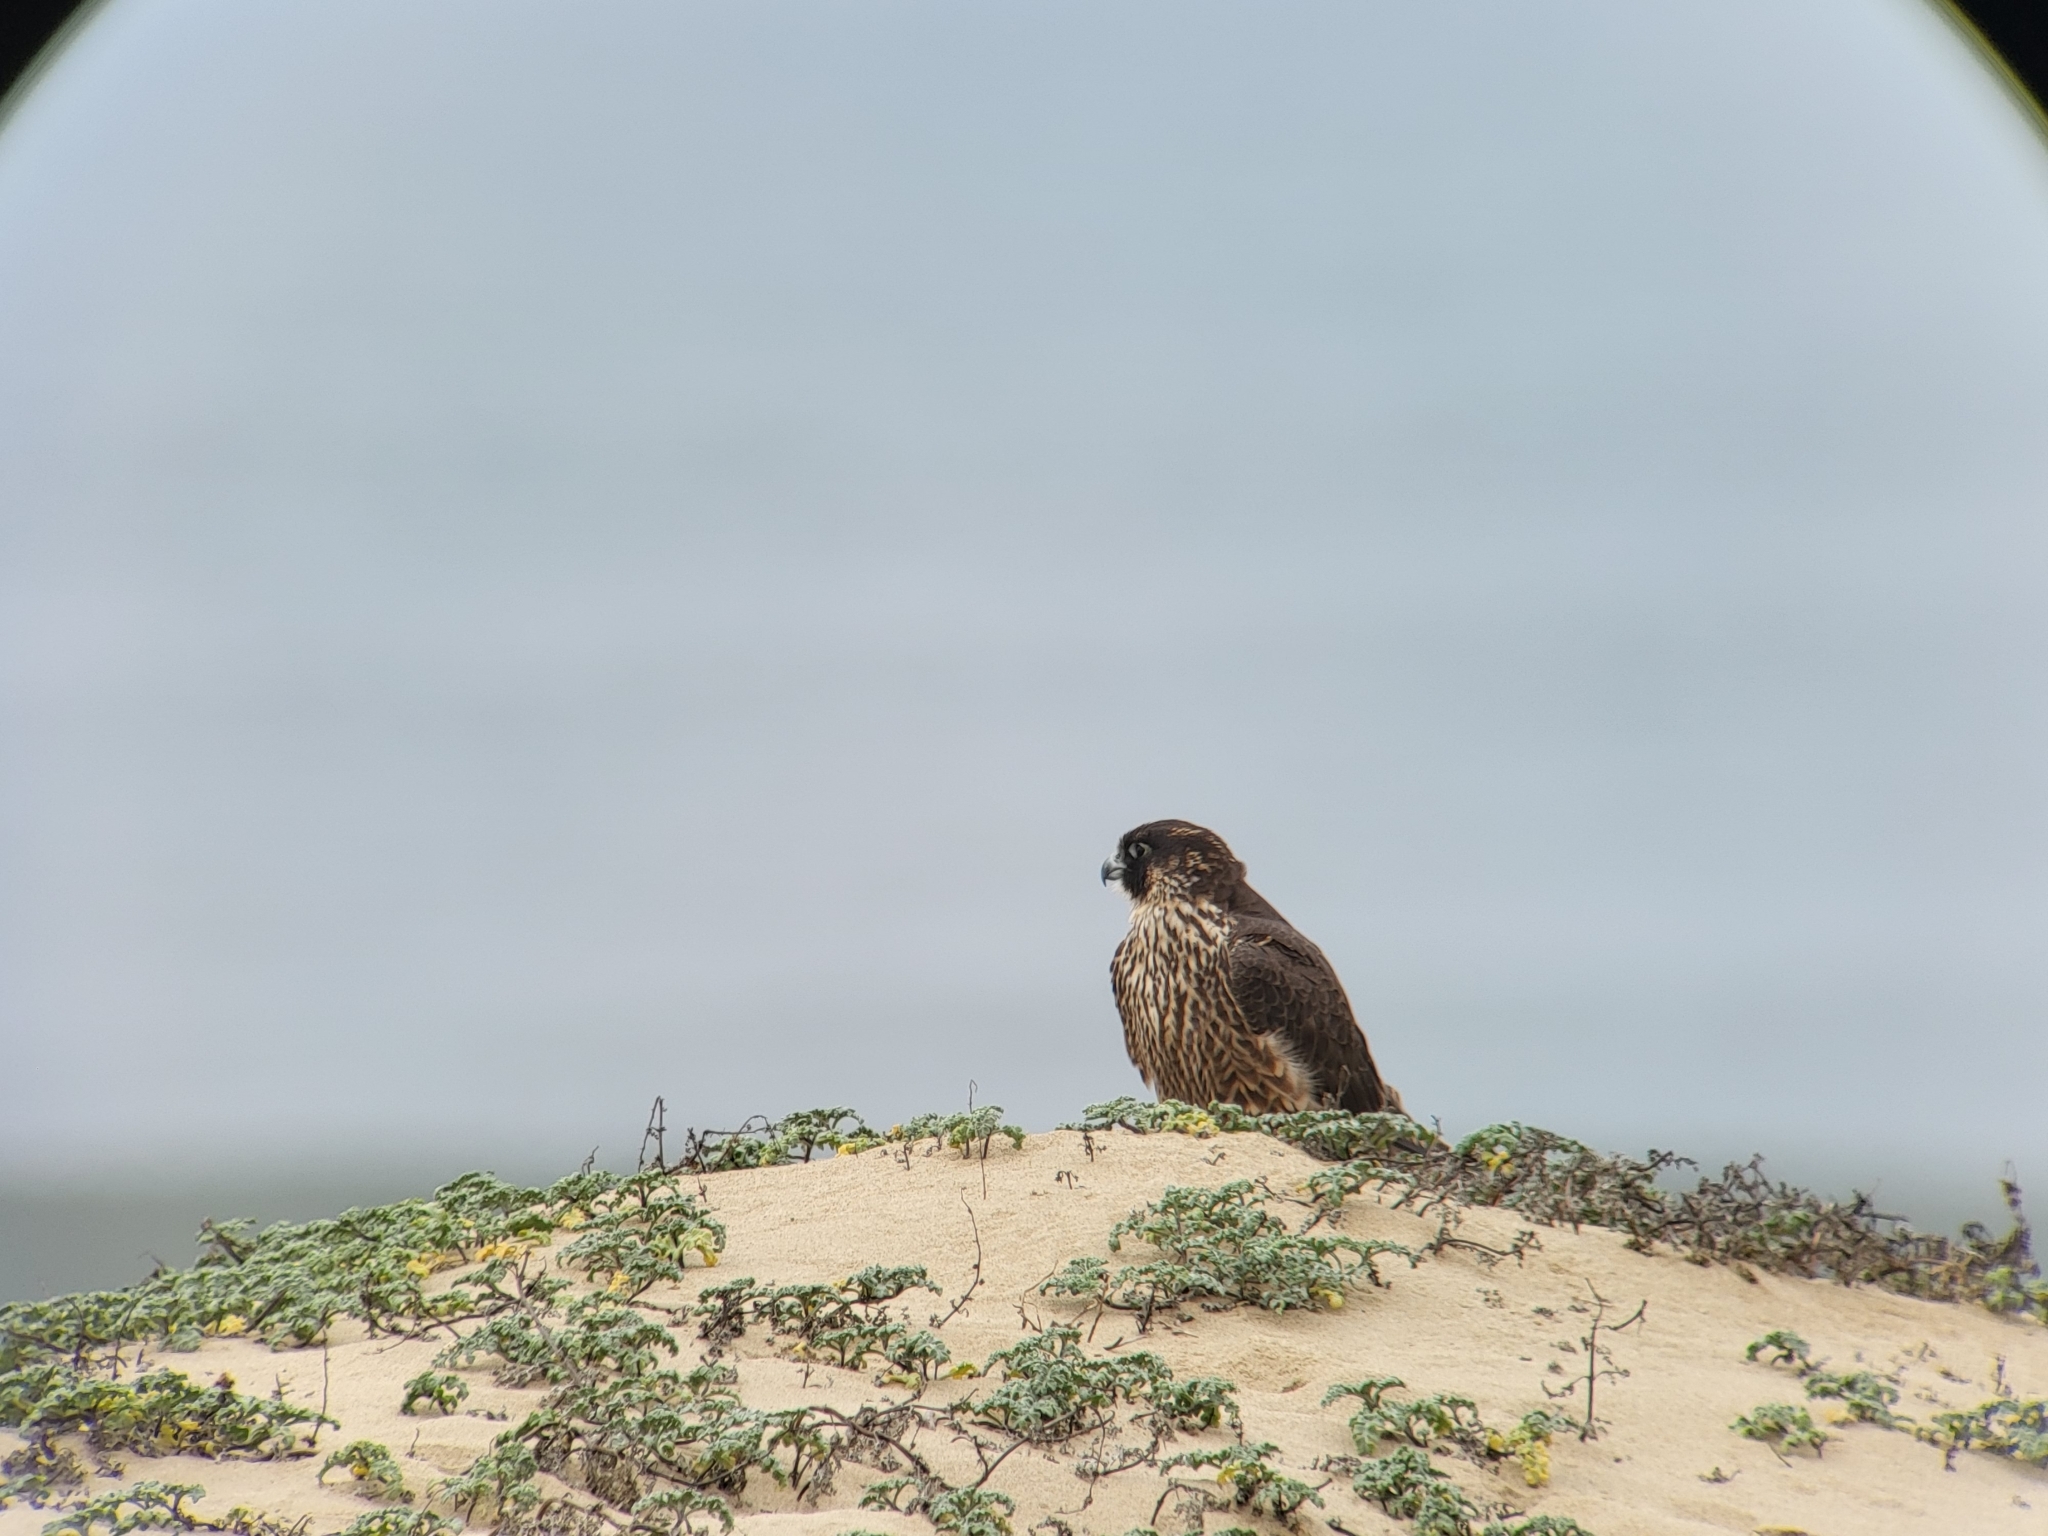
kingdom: Animalia
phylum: Chordata
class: Aves
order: Falconiformes
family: Falconidae
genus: Falco
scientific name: Falco peregrinus
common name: Peregrine falcon
